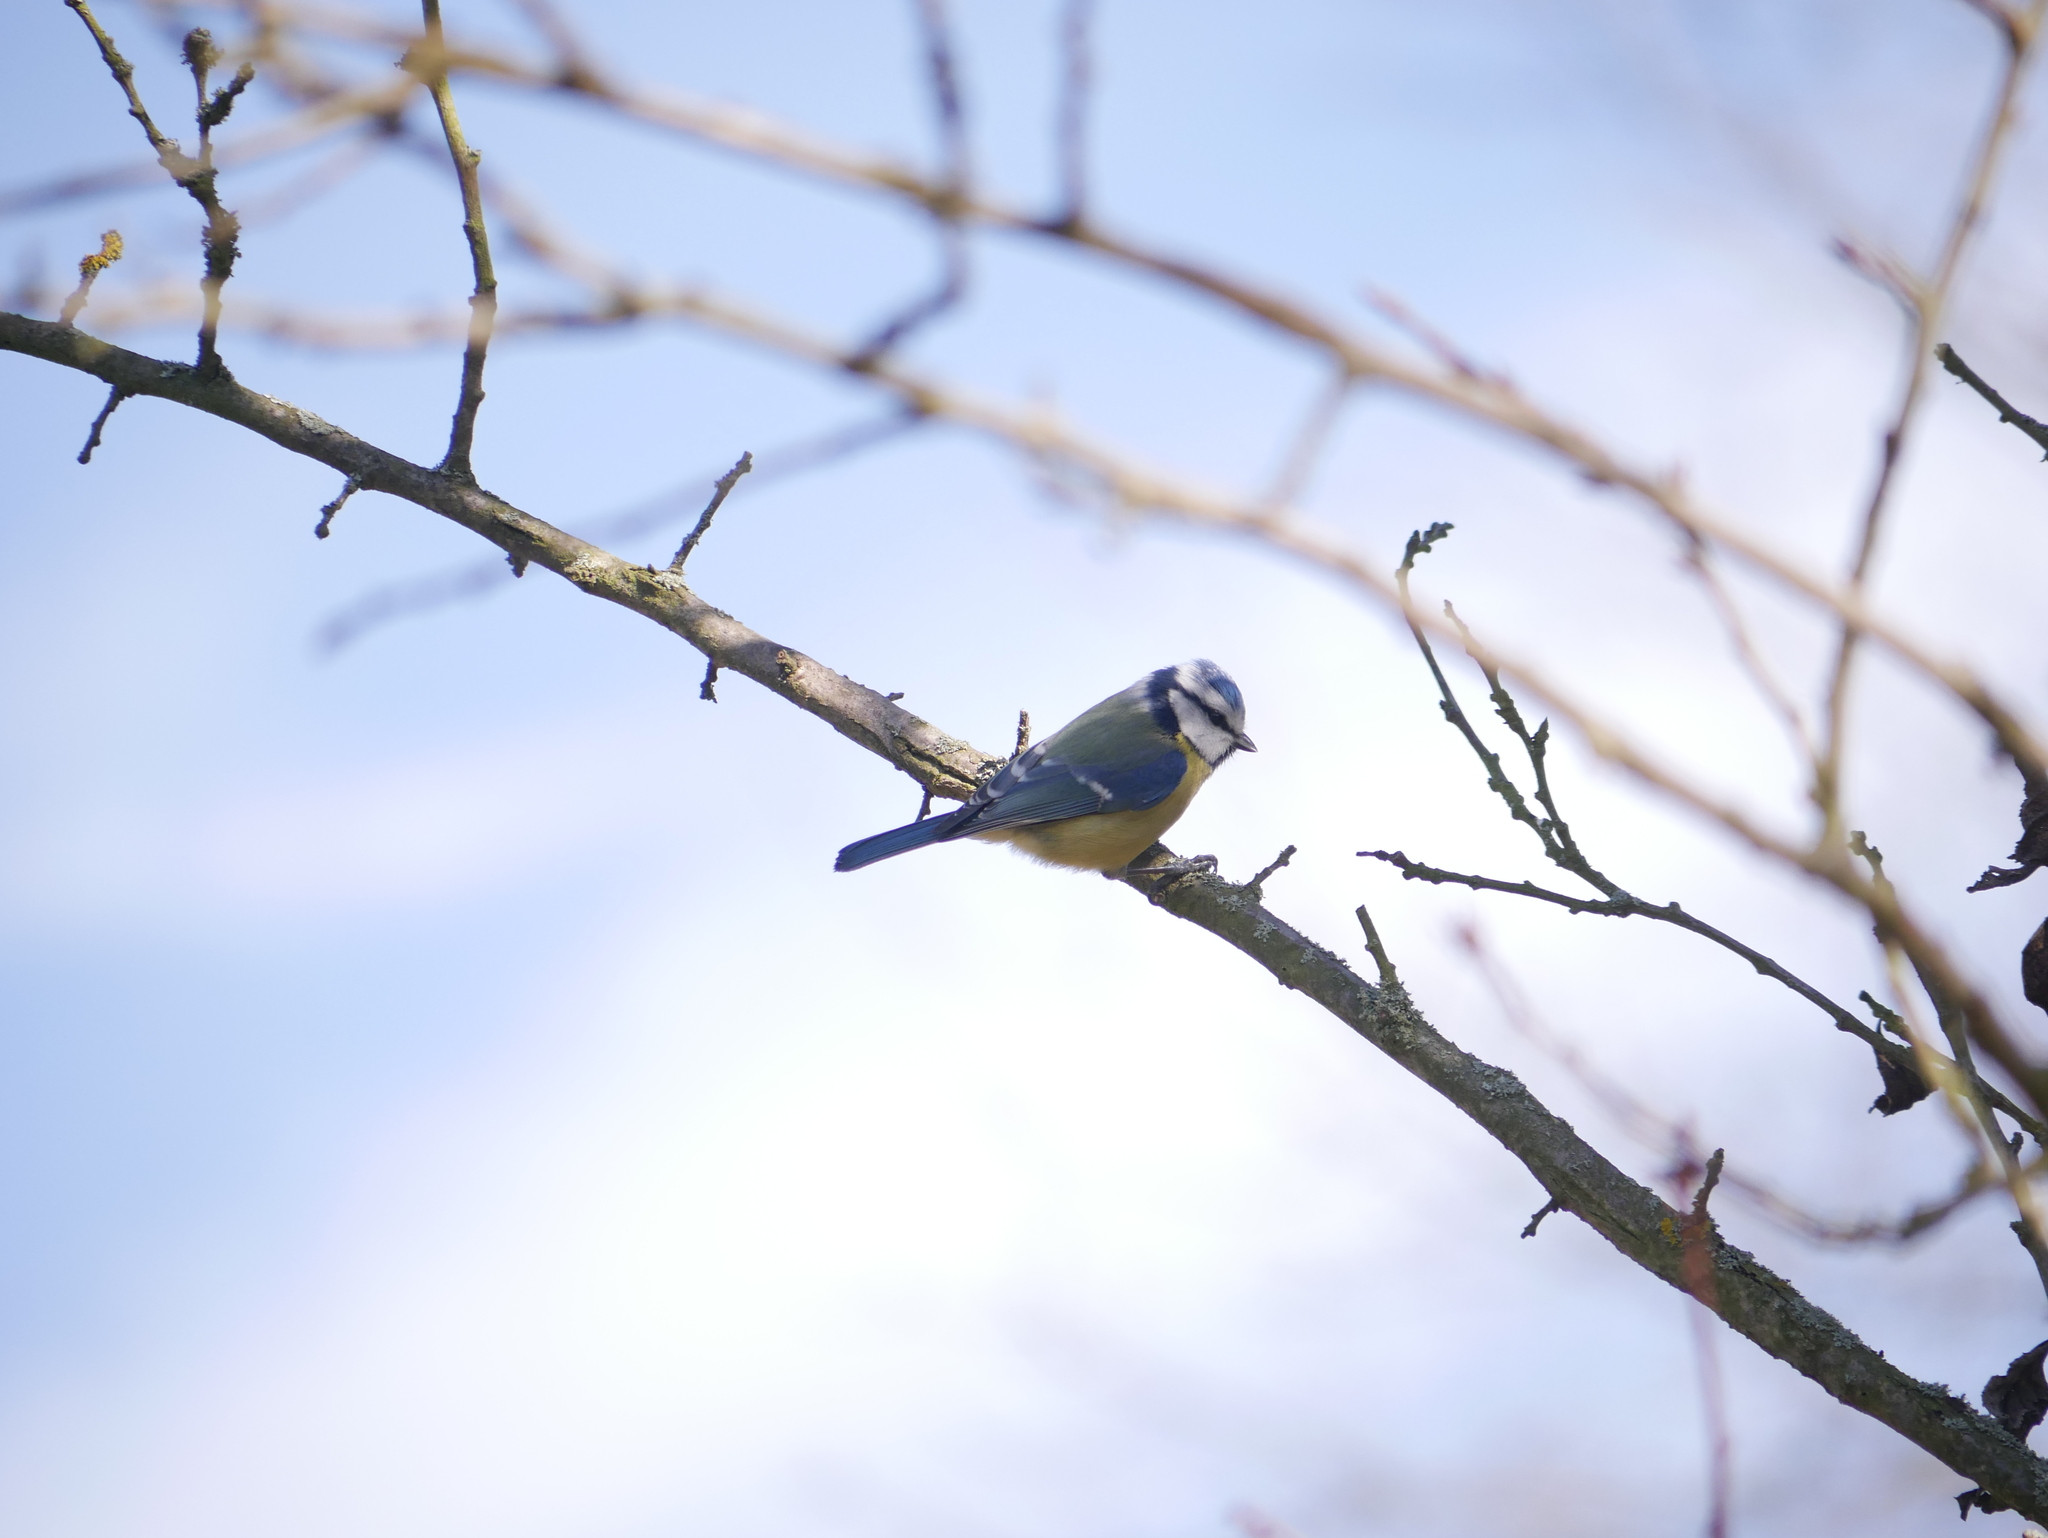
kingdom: Animalia
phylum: Chordata
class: Aves
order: Passeriformes
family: Paridae
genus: Cyanistes
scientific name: Cyanistes caeruleus
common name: Eurasian blue tit
